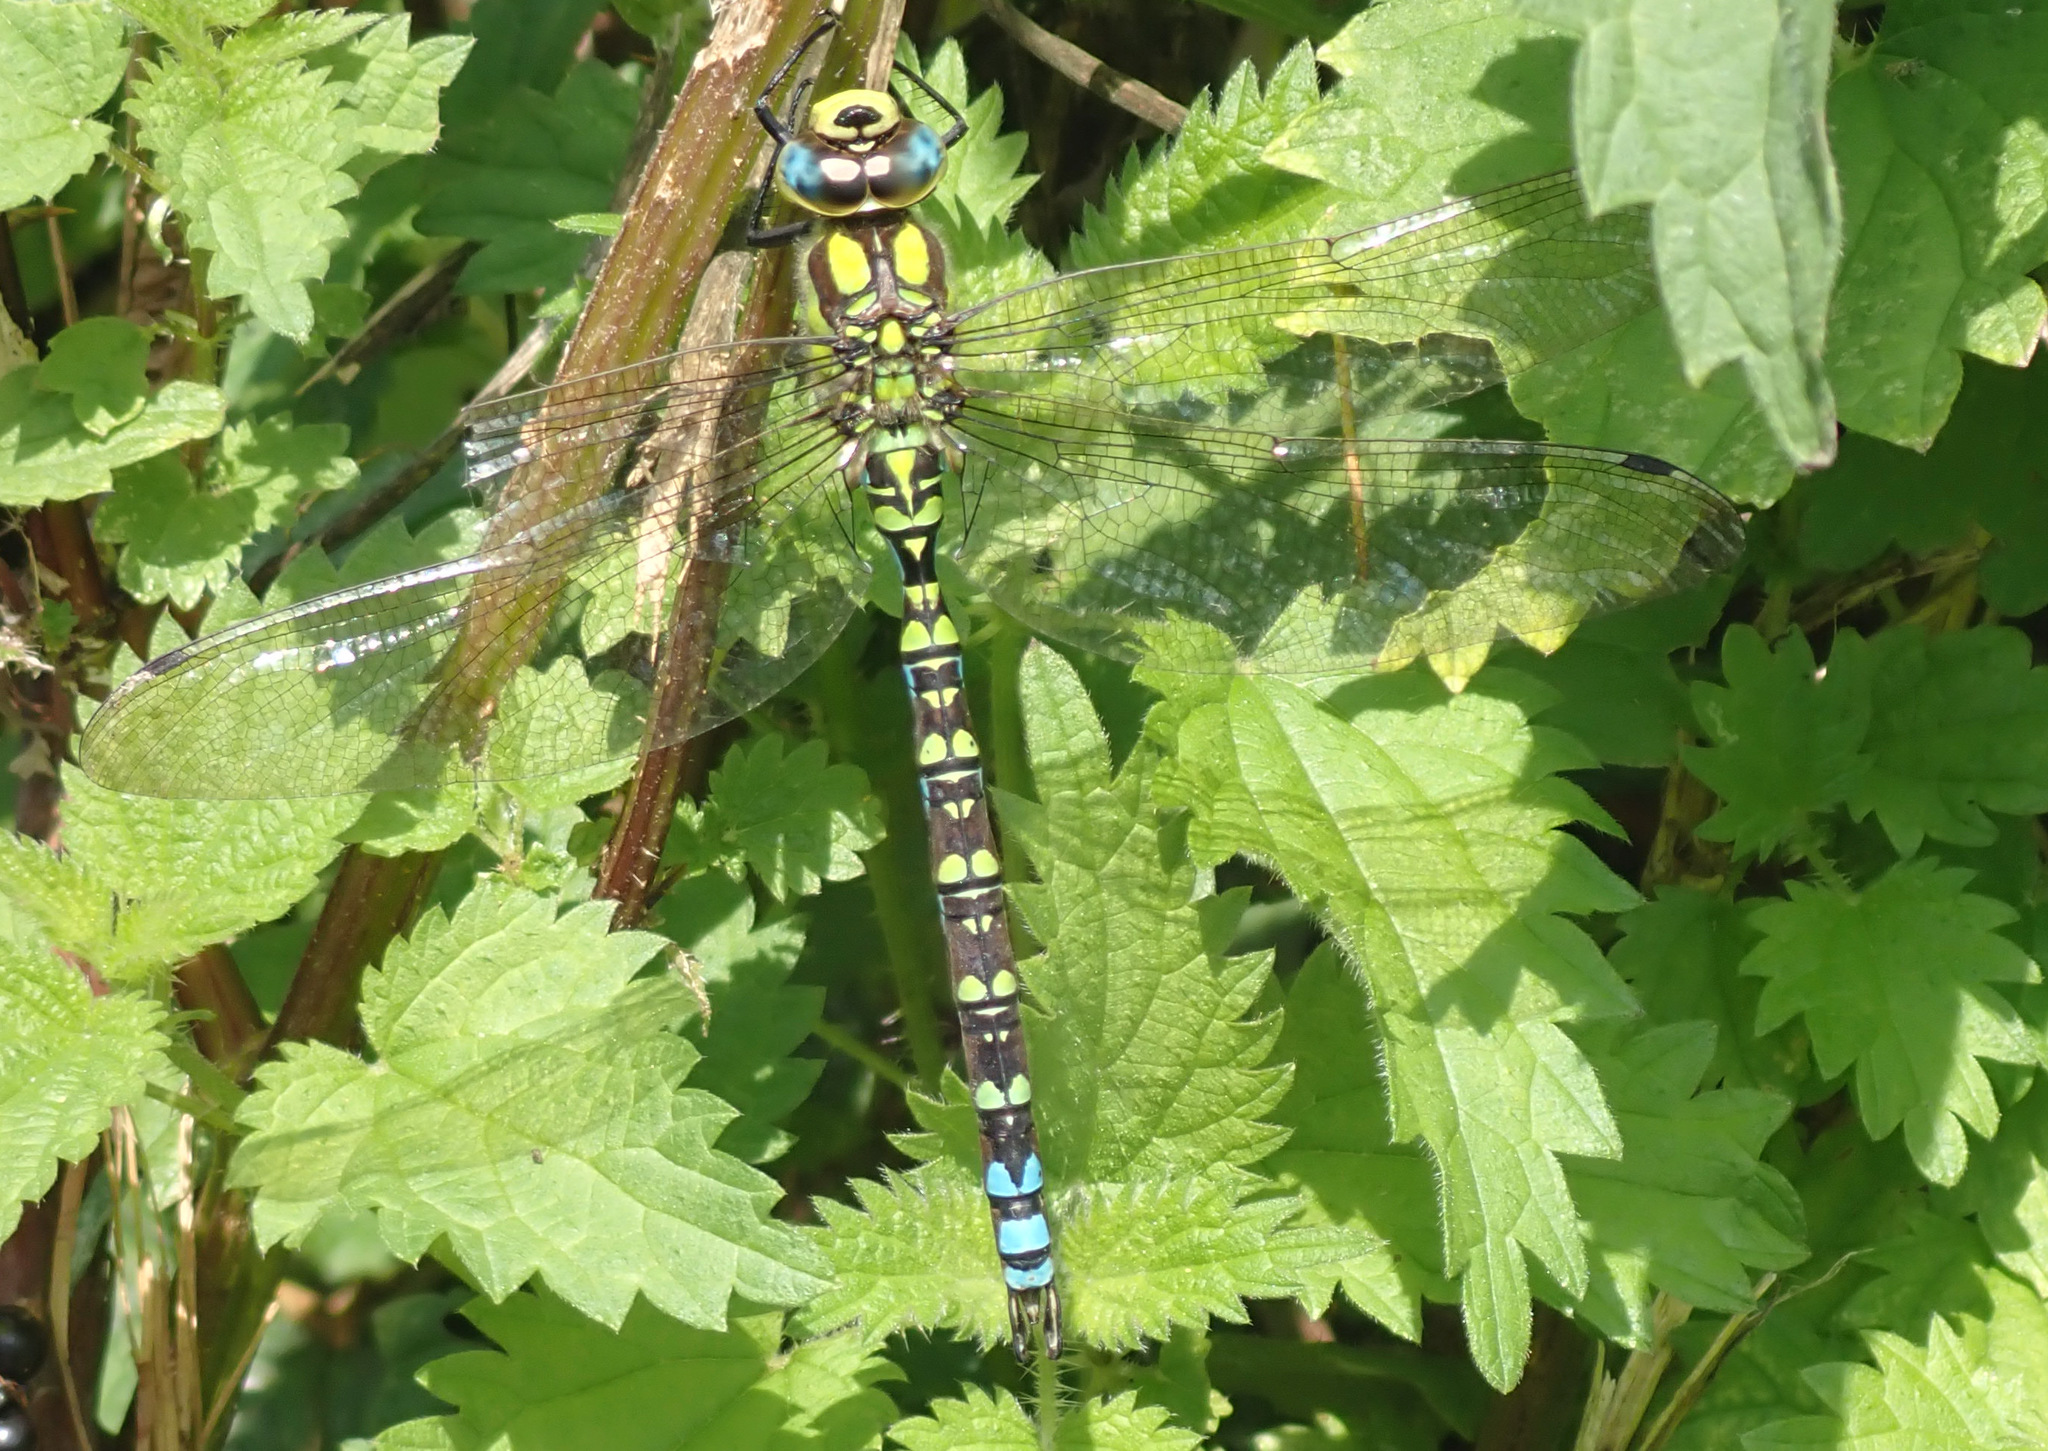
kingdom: Animalia
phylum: Arthropoda
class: Insecta
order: Odonata
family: Aeshnidae
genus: Aeshna
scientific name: Aeshna cyanea
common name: Southern hawker
